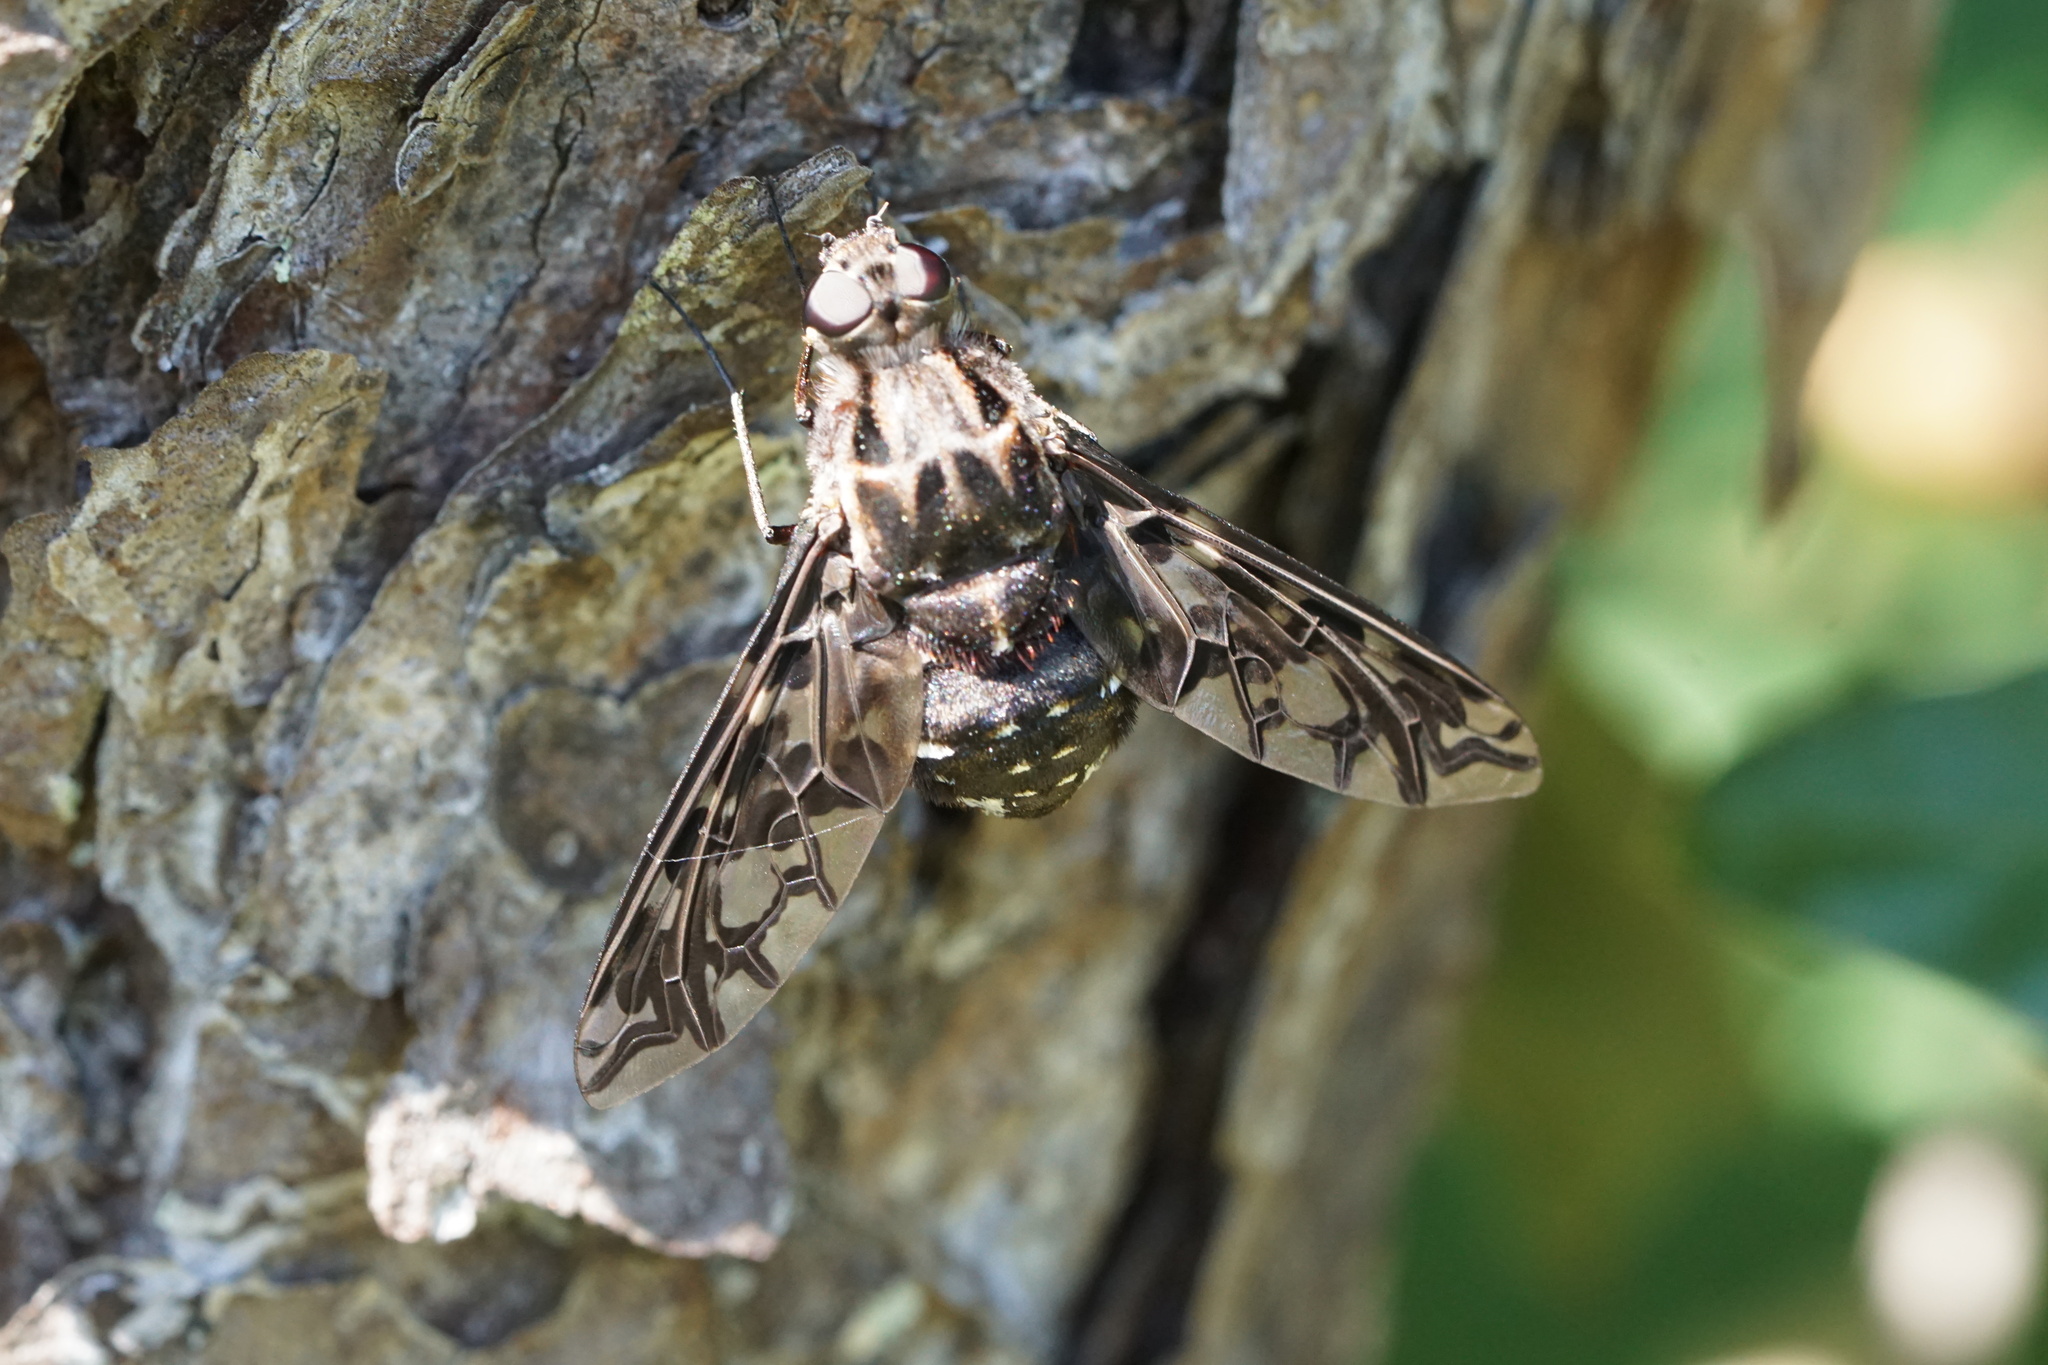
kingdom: Animalia
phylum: Arthropoda
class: Insecta
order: Diptera
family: Bombyliidae
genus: Xenox
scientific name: Xenox tigrinus
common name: Tiger bee fly
